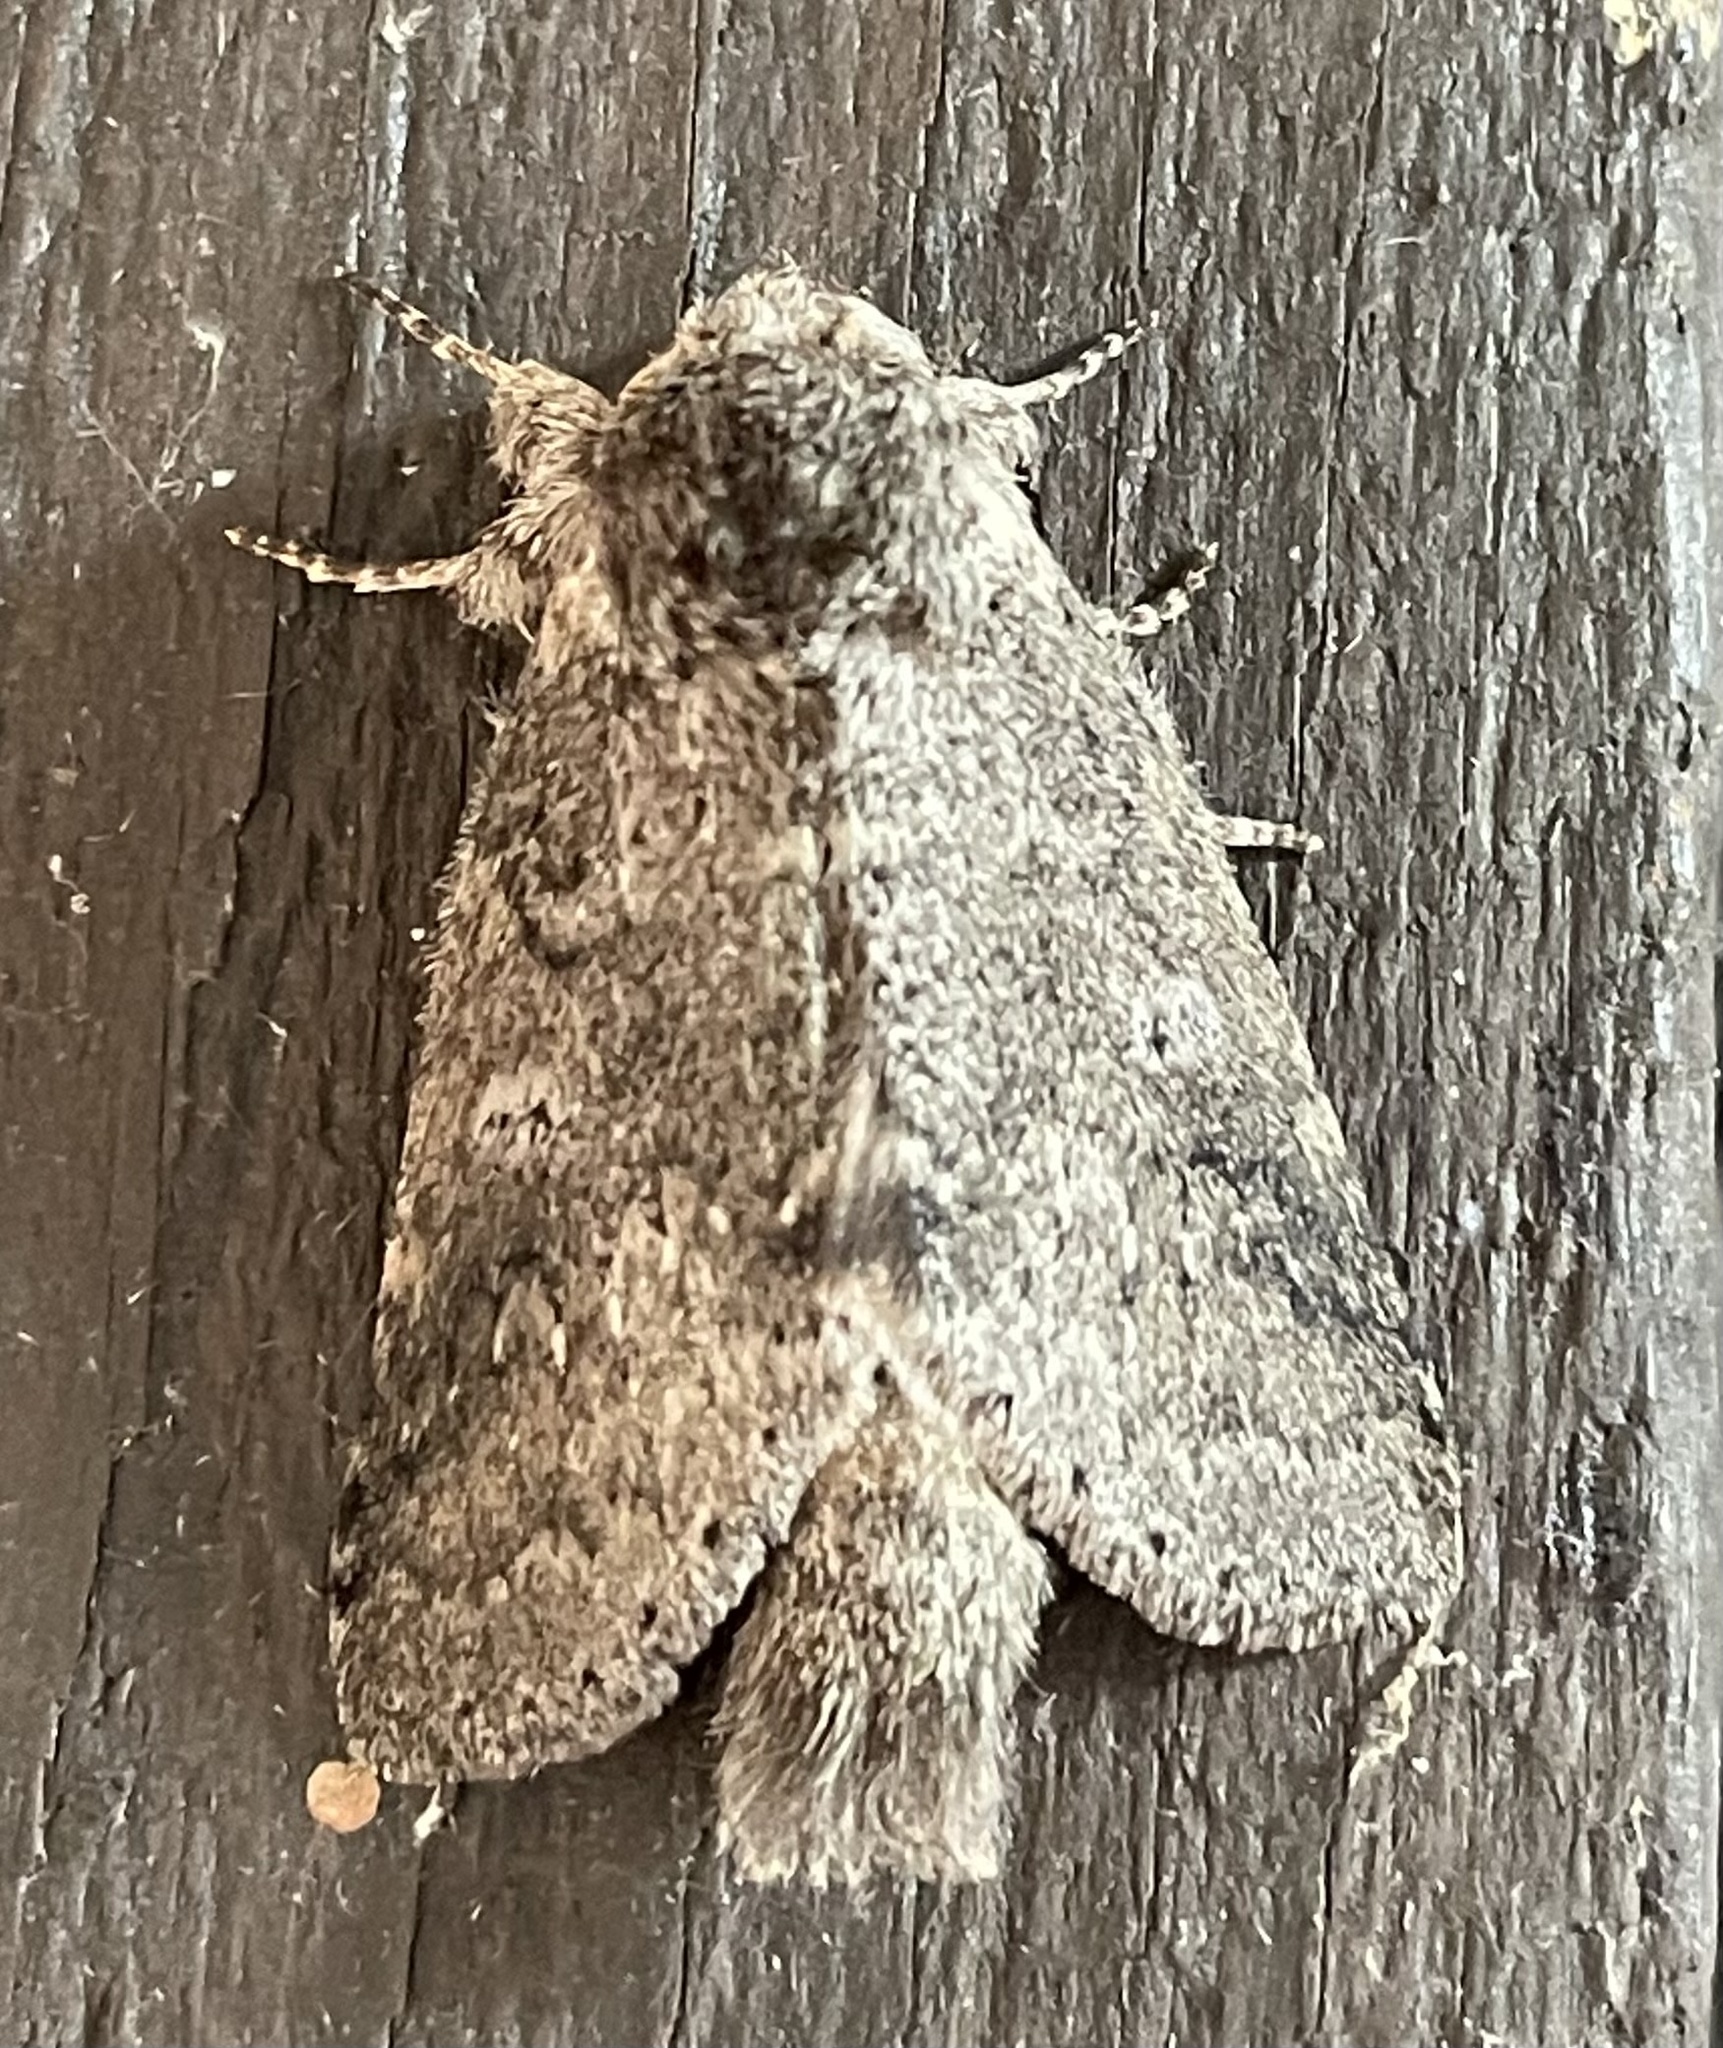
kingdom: Animalia
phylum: Arthropoda
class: Insecta
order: Lepidoptera
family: Notodontidae
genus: Lochmaeus
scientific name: Lochmaeus manteo
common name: Variable oakleaf caterpillar moth
